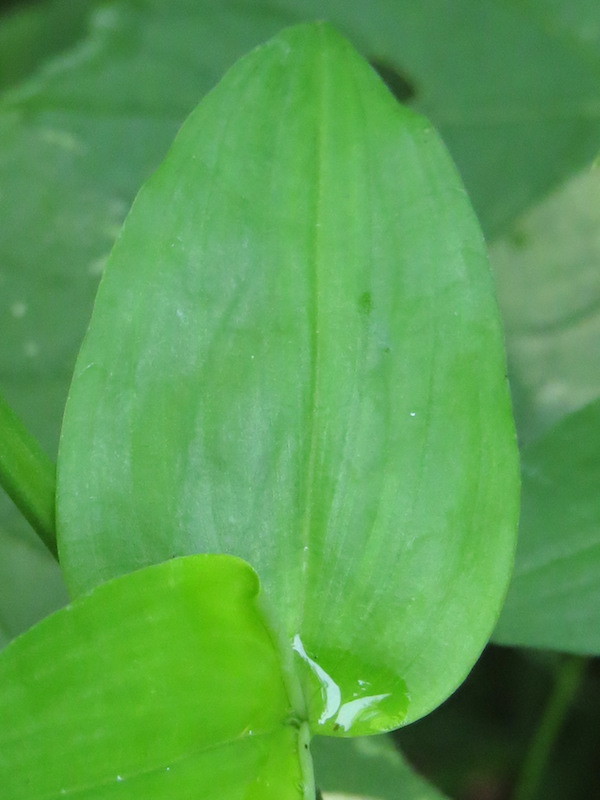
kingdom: Plantae
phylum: Tracheophyta
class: Liliopsida
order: Commelinales
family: Commelinaceae
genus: Commelina
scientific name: Commelina communis
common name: Asiatic dayflower
